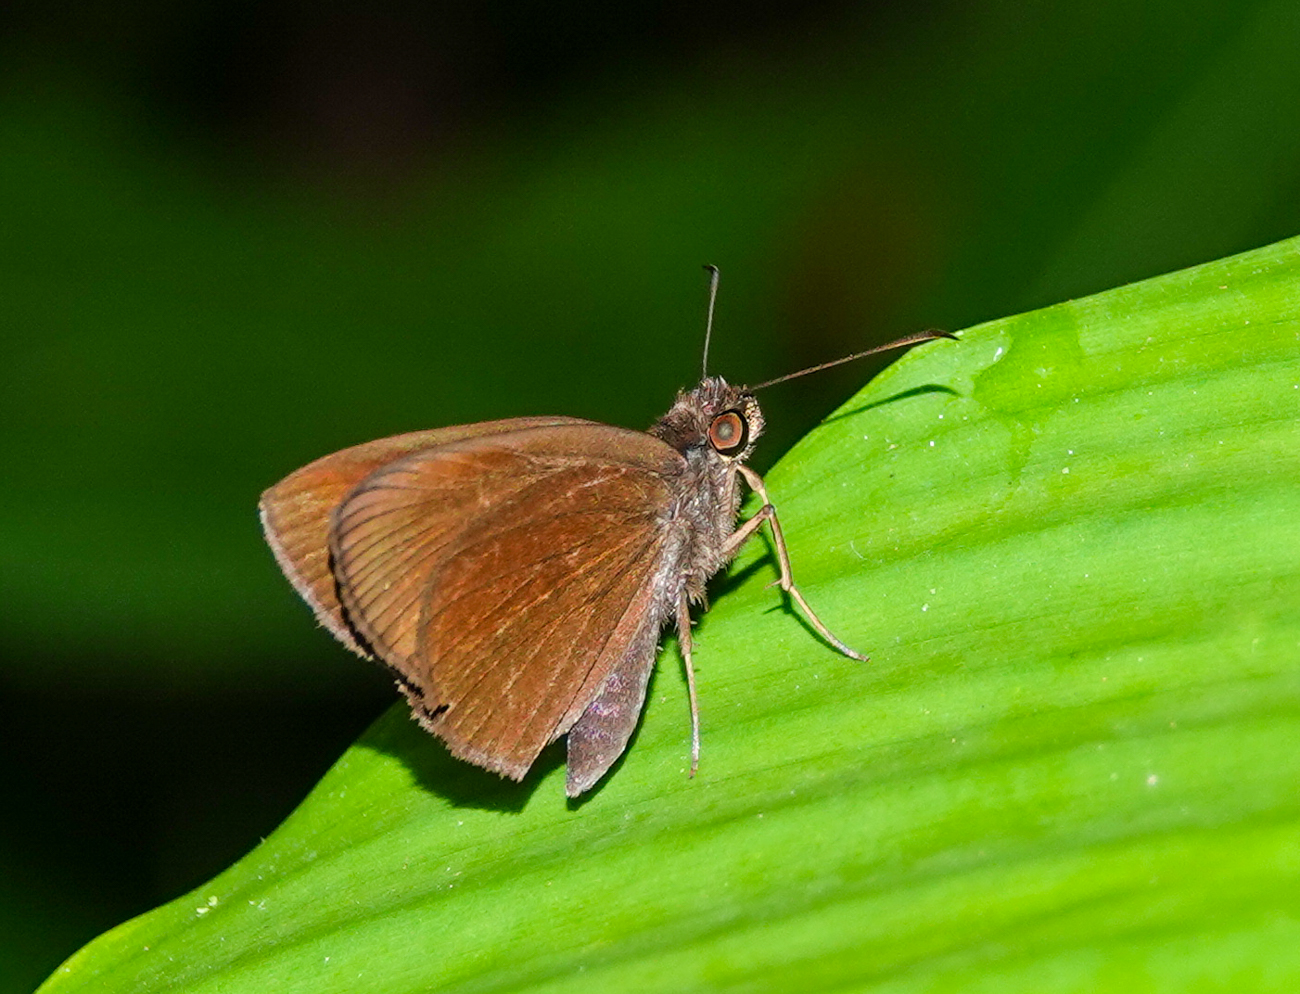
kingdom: Animalia
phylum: Arthropoda
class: Insecta
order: Lepidoptera
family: Hesperiidae
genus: Koruthaialos
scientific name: Koruthaialos butleri
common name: Dark velvet bob
